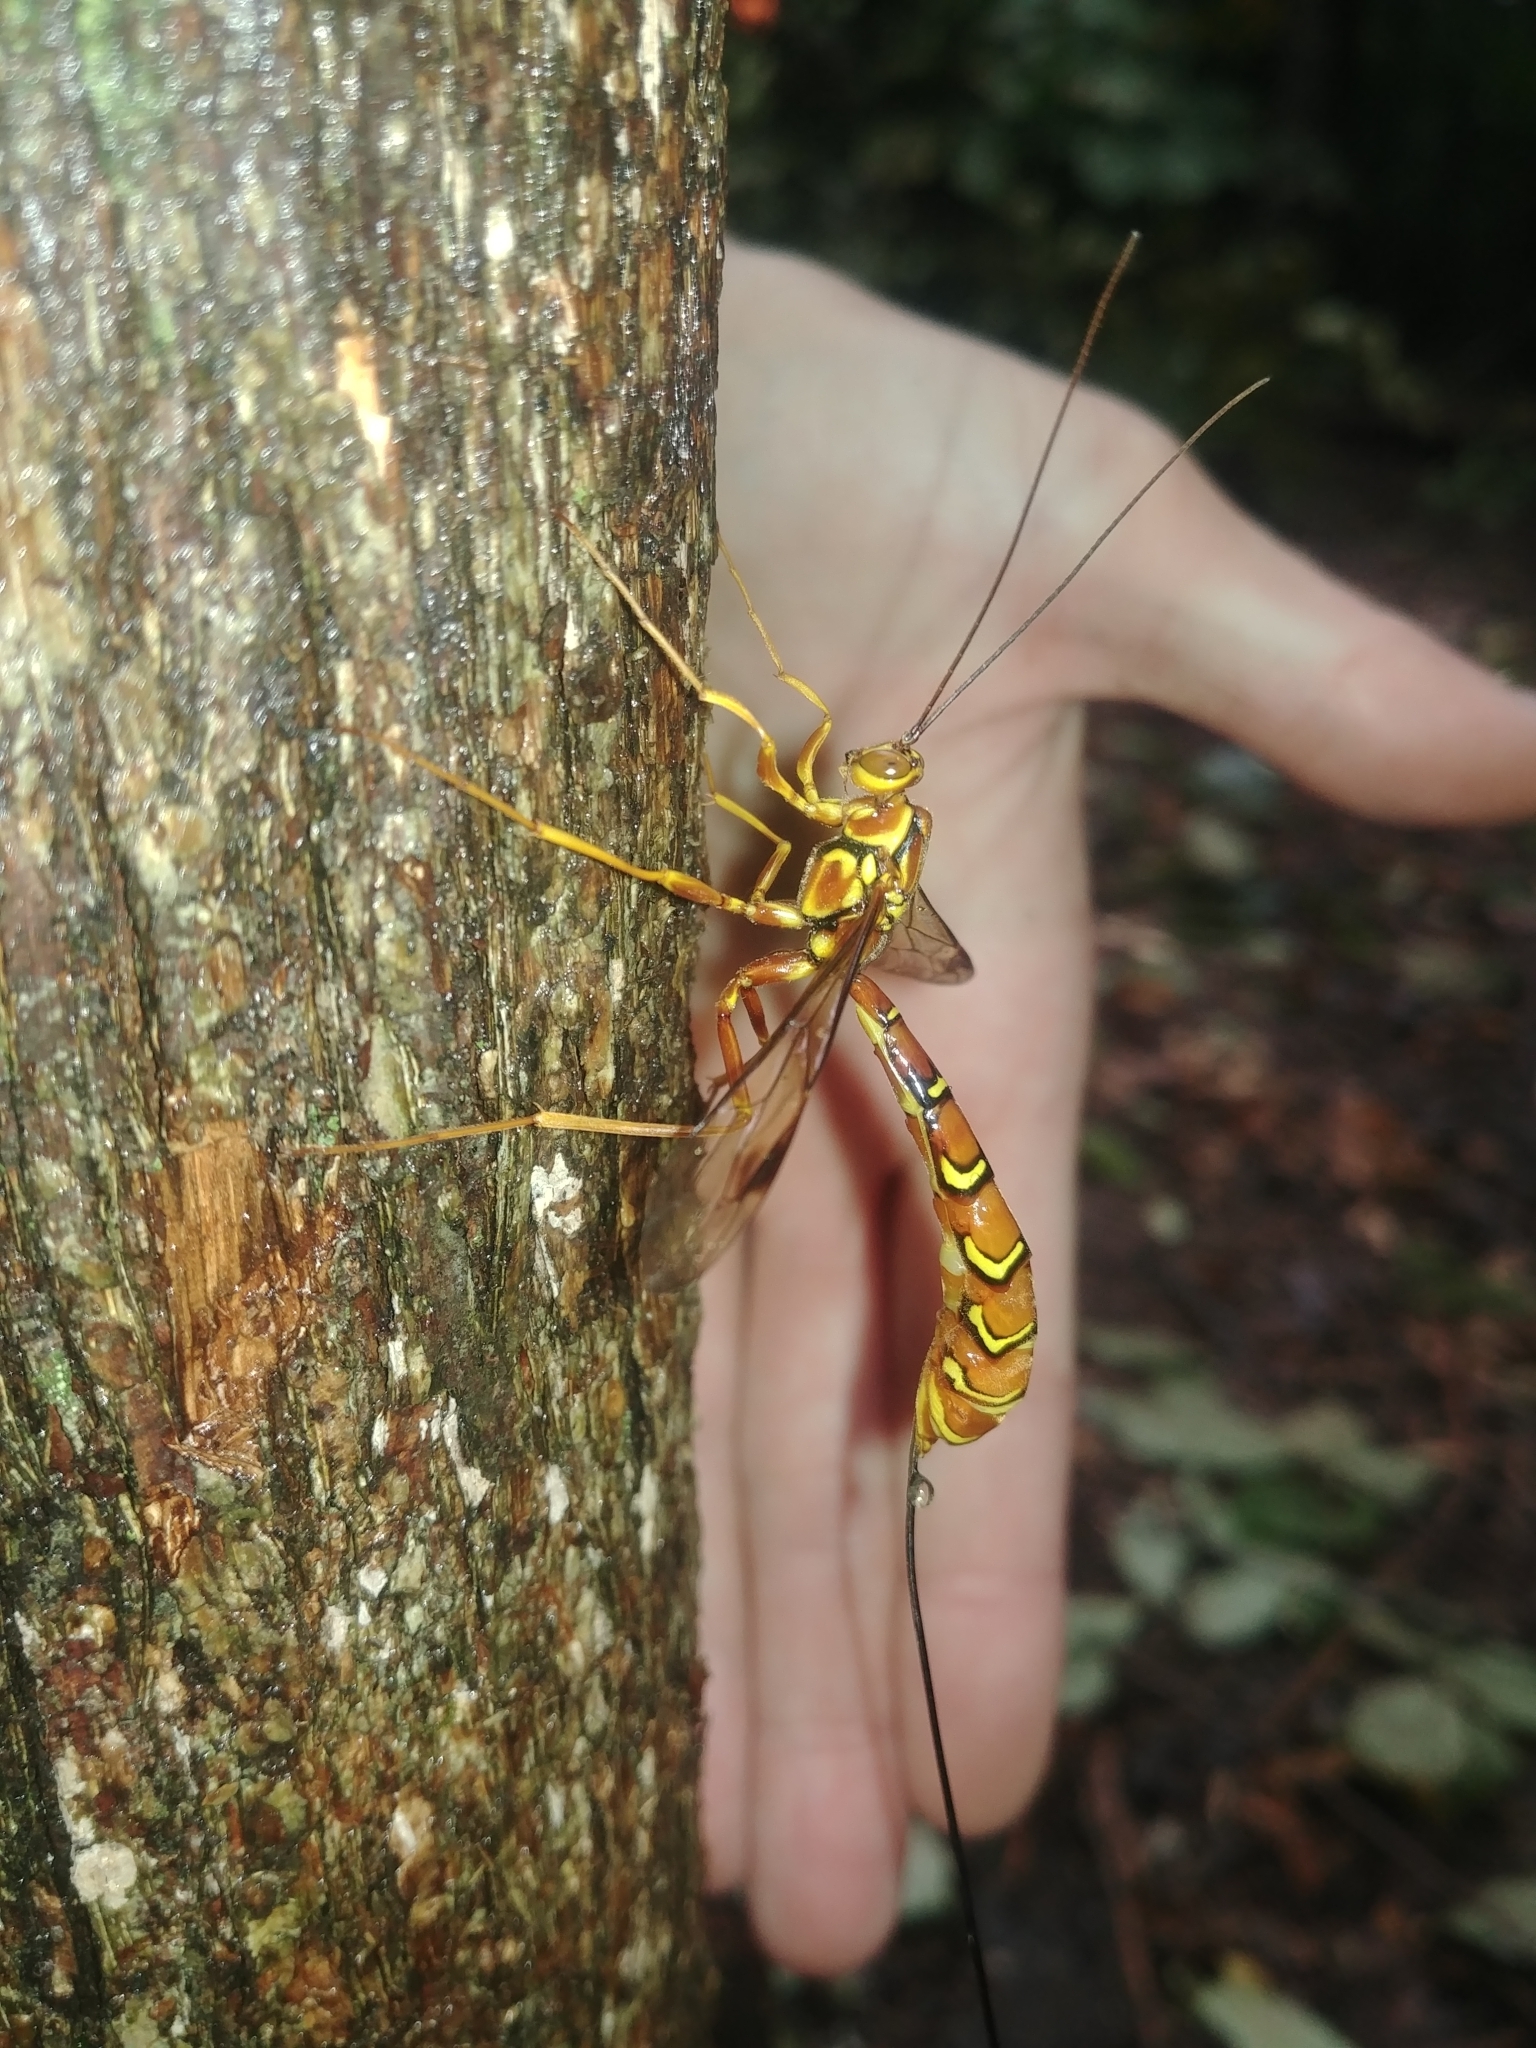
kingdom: Animalia
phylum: Arthropoda
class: Insecta
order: Hymenoptera
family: Ichneumonidae
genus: Megarhyssa
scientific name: Megarhyssa greenei
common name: Greene's giant ichneumonid wasp
